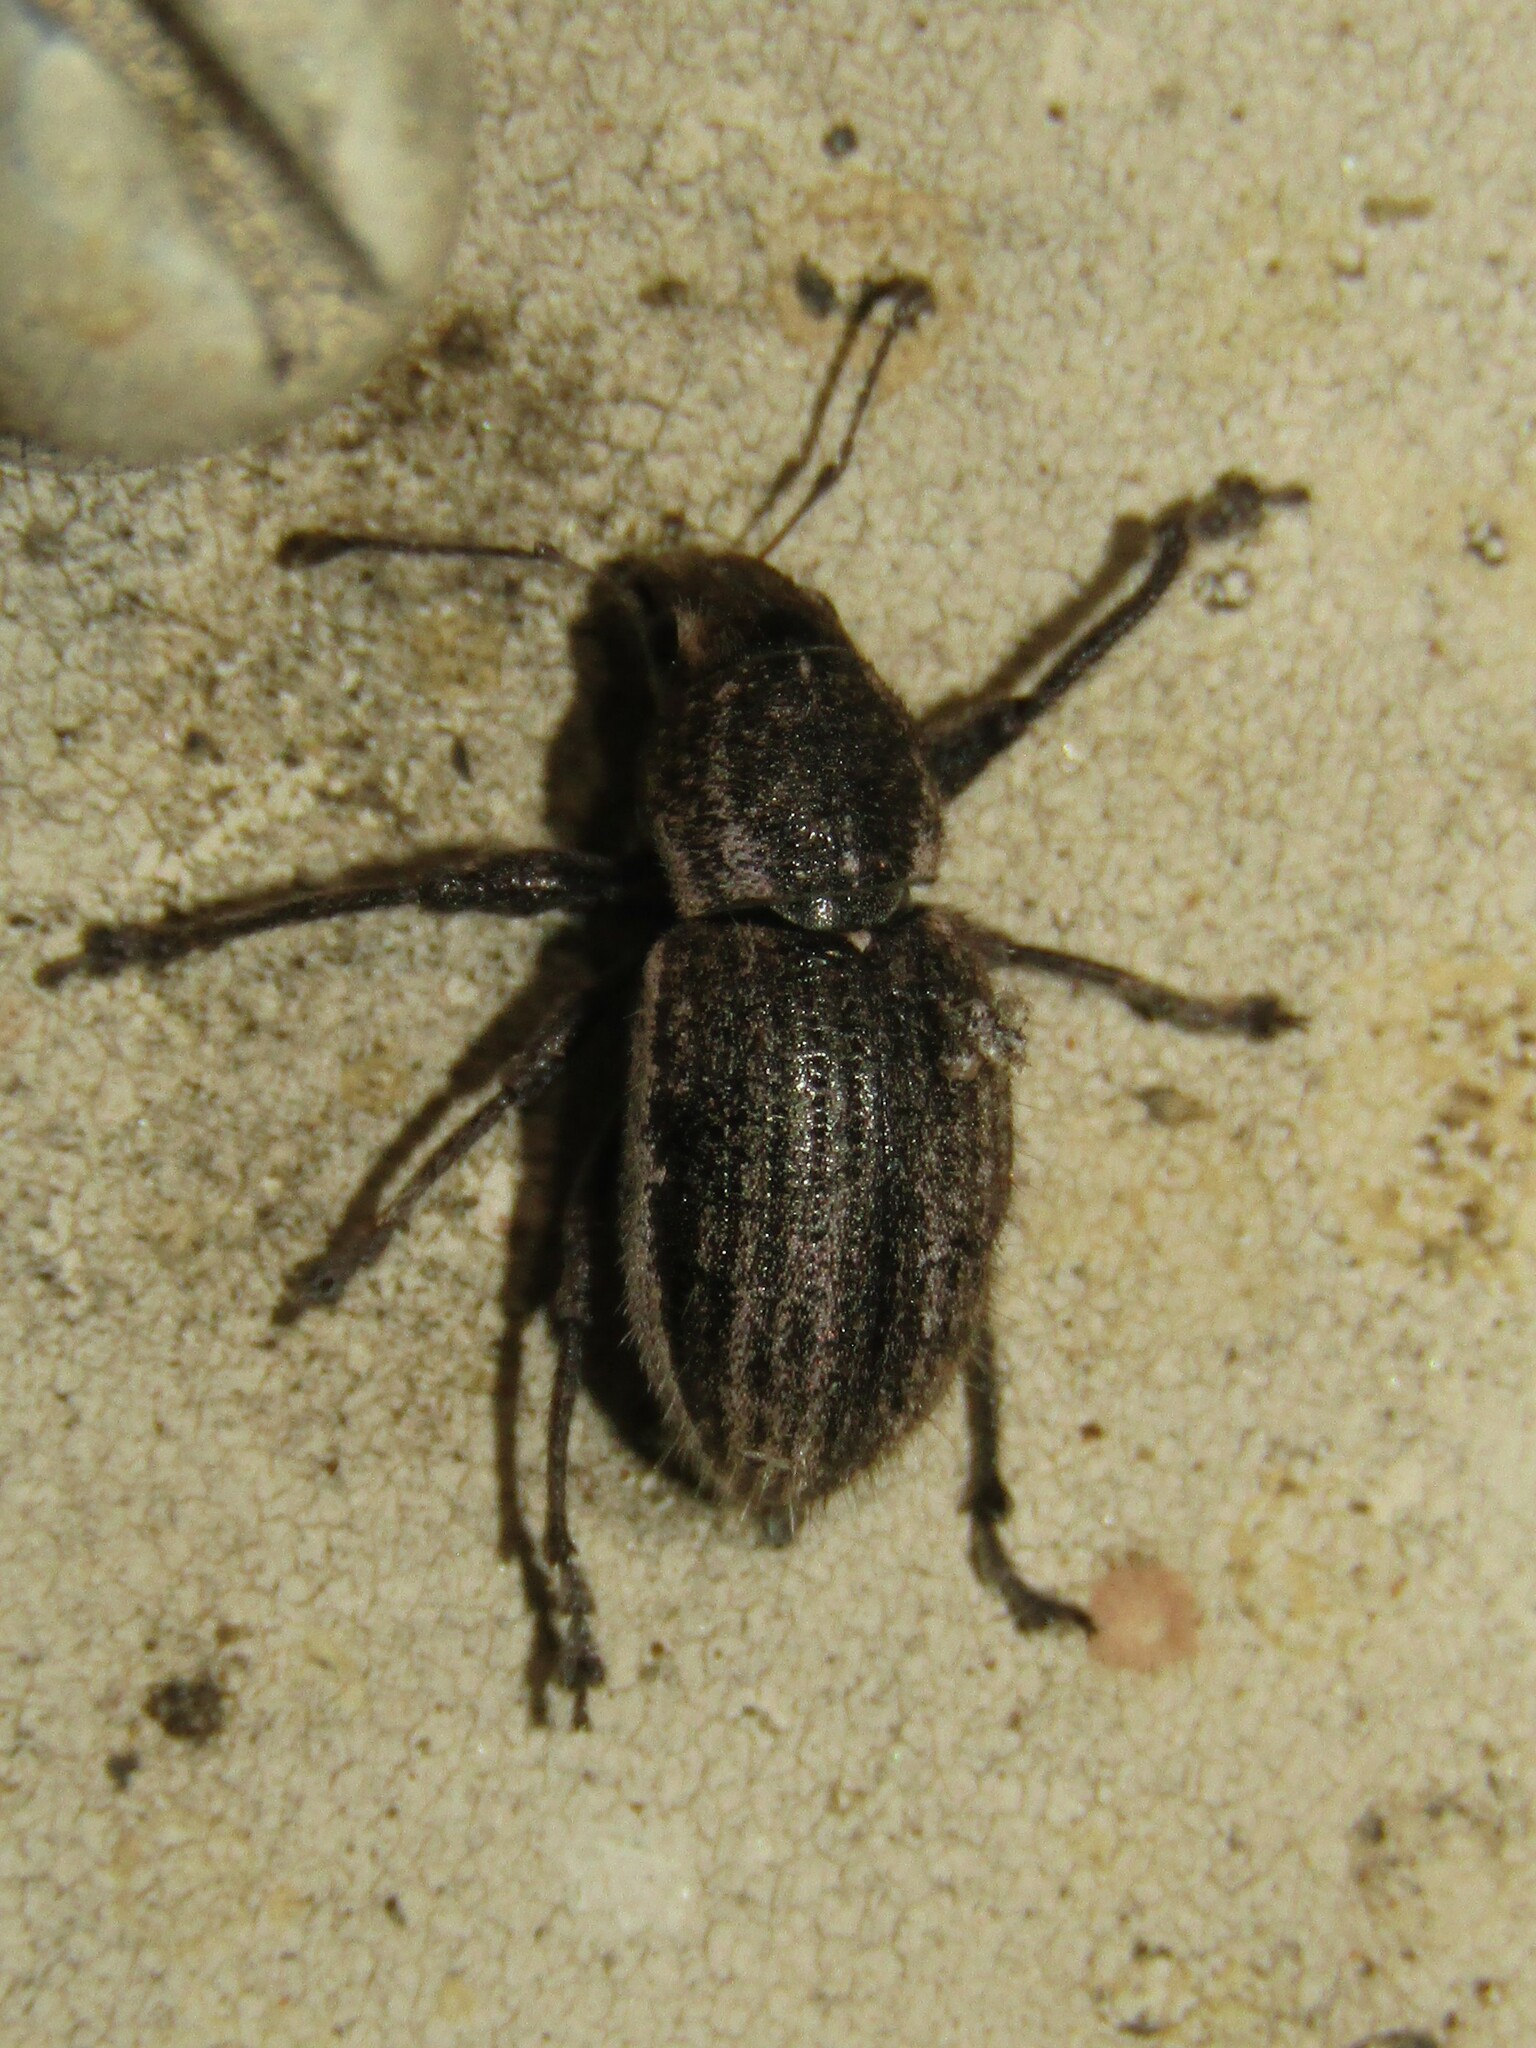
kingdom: Animalia
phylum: Arthropoda
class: Insecta
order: Coleoptera
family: Curculionidae
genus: Naupactus
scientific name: Naupactus leucoloma
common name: Whitefringed beetle
